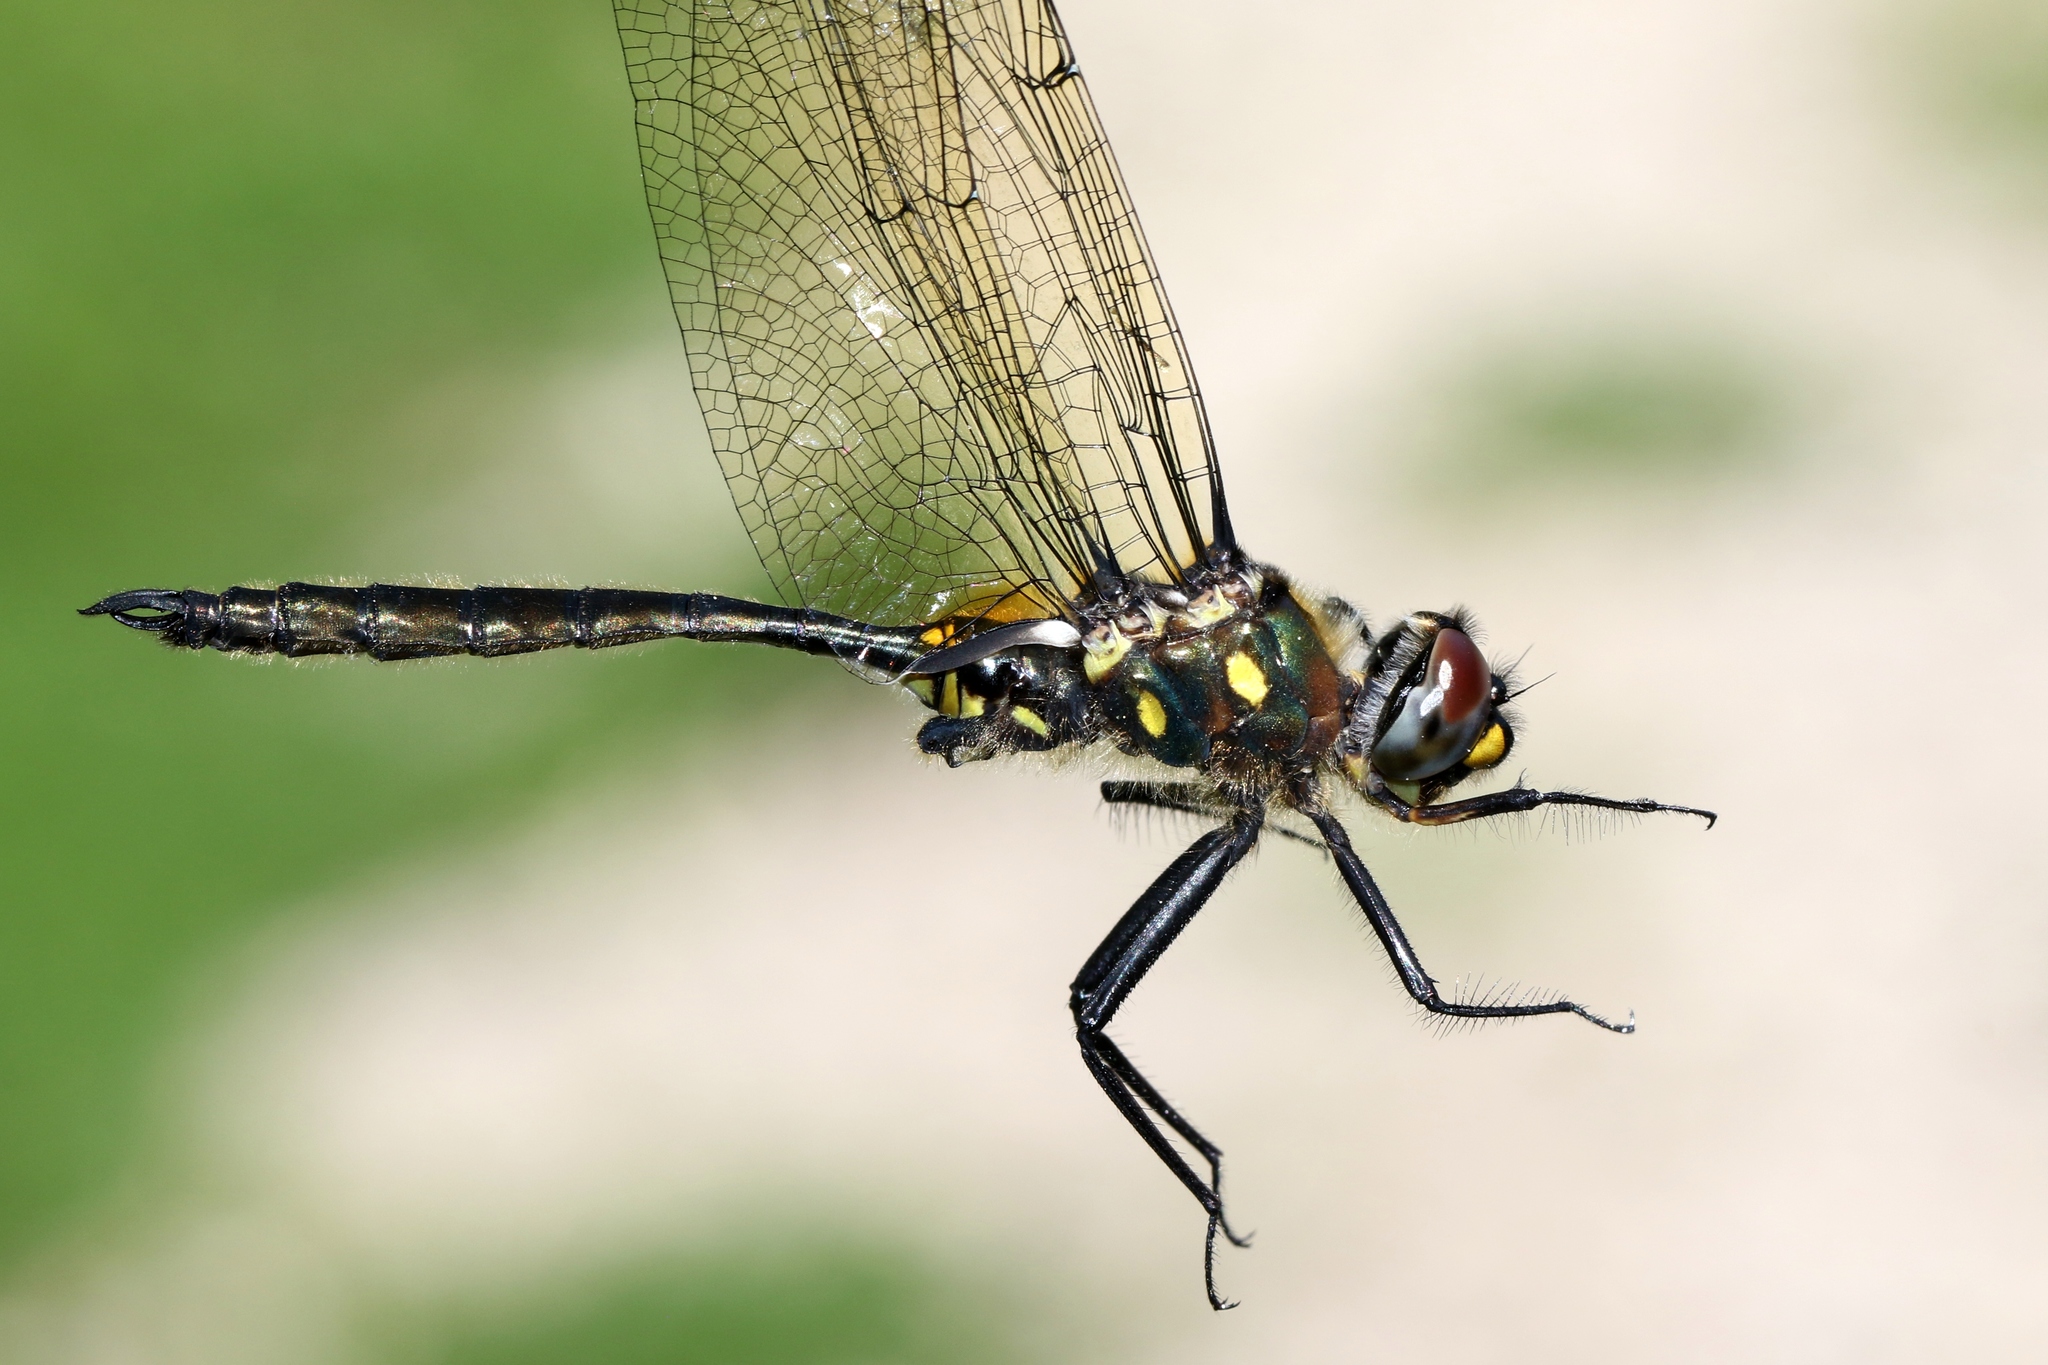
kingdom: Animalia
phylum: Arthropoda
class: Insecta
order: Odonata
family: Corduliidae
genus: Somatochlora
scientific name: Somatochlora minor
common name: Ocellated emerald
